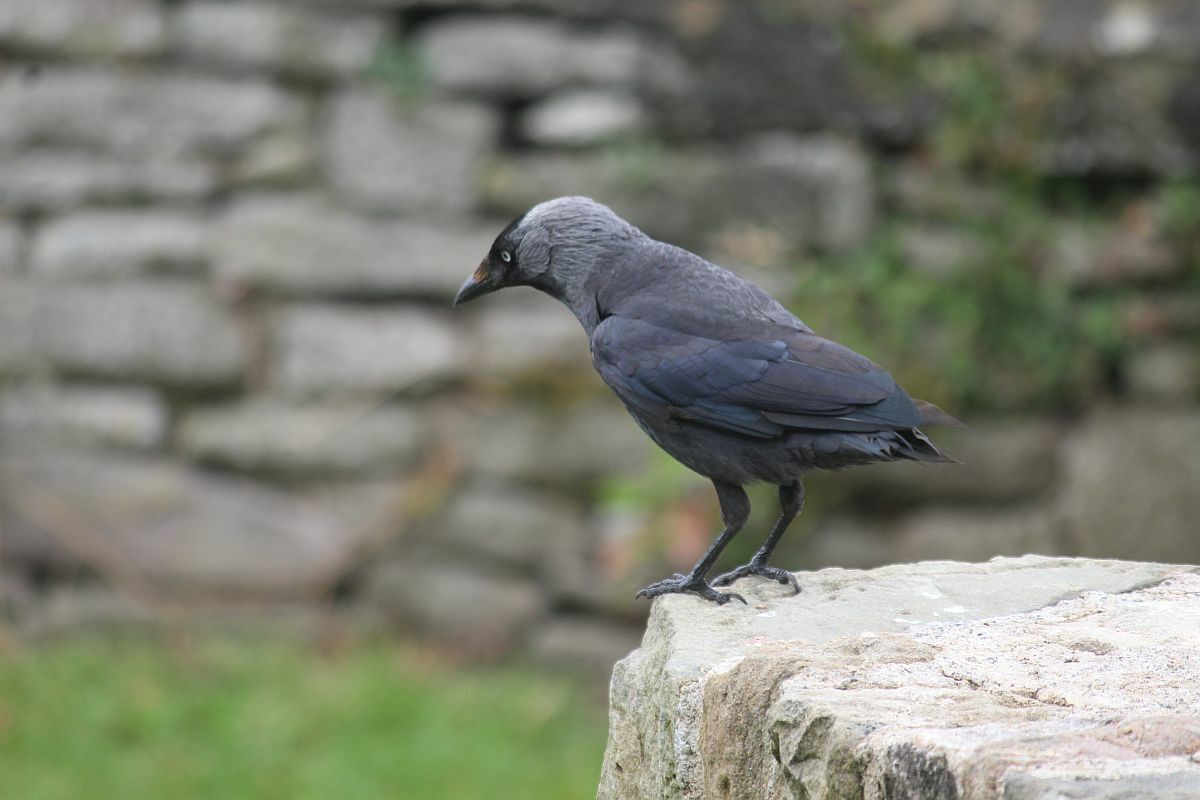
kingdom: Animalia
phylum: Chordata
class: Aves
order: Passeriformes
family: Corvidae
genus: Coloeus
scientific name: Coloeus monedula
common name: Western jackdaw
